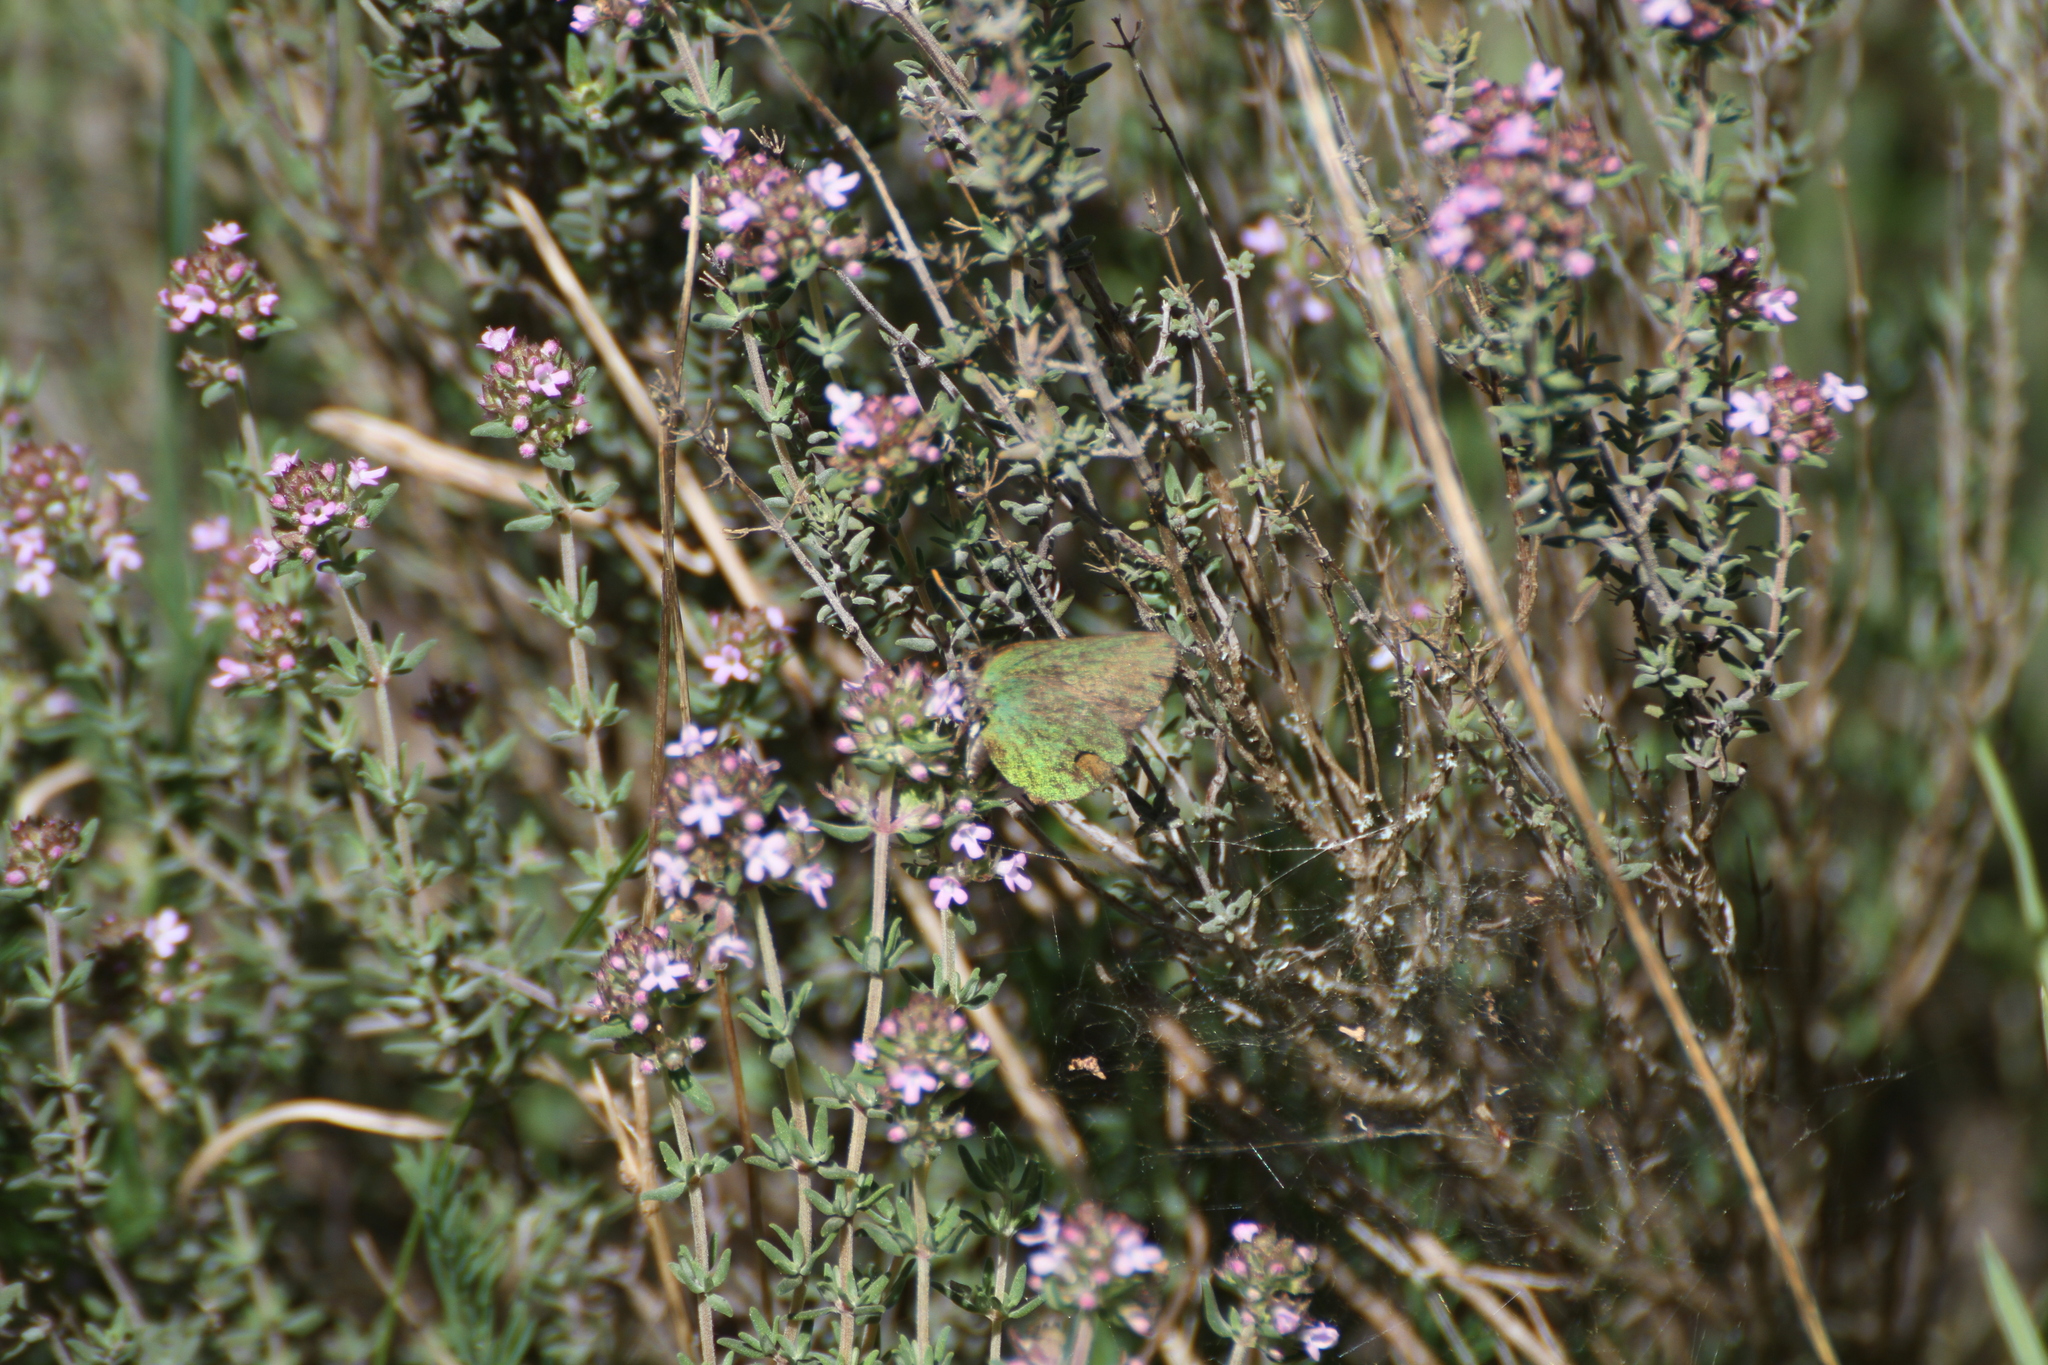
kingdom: Animalia
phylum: Arthropoda
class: Insecta
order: Lepidoptera
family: Lycaenidae
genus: Callophrys
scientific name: Callophrys rubi
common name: Green hairstreak
